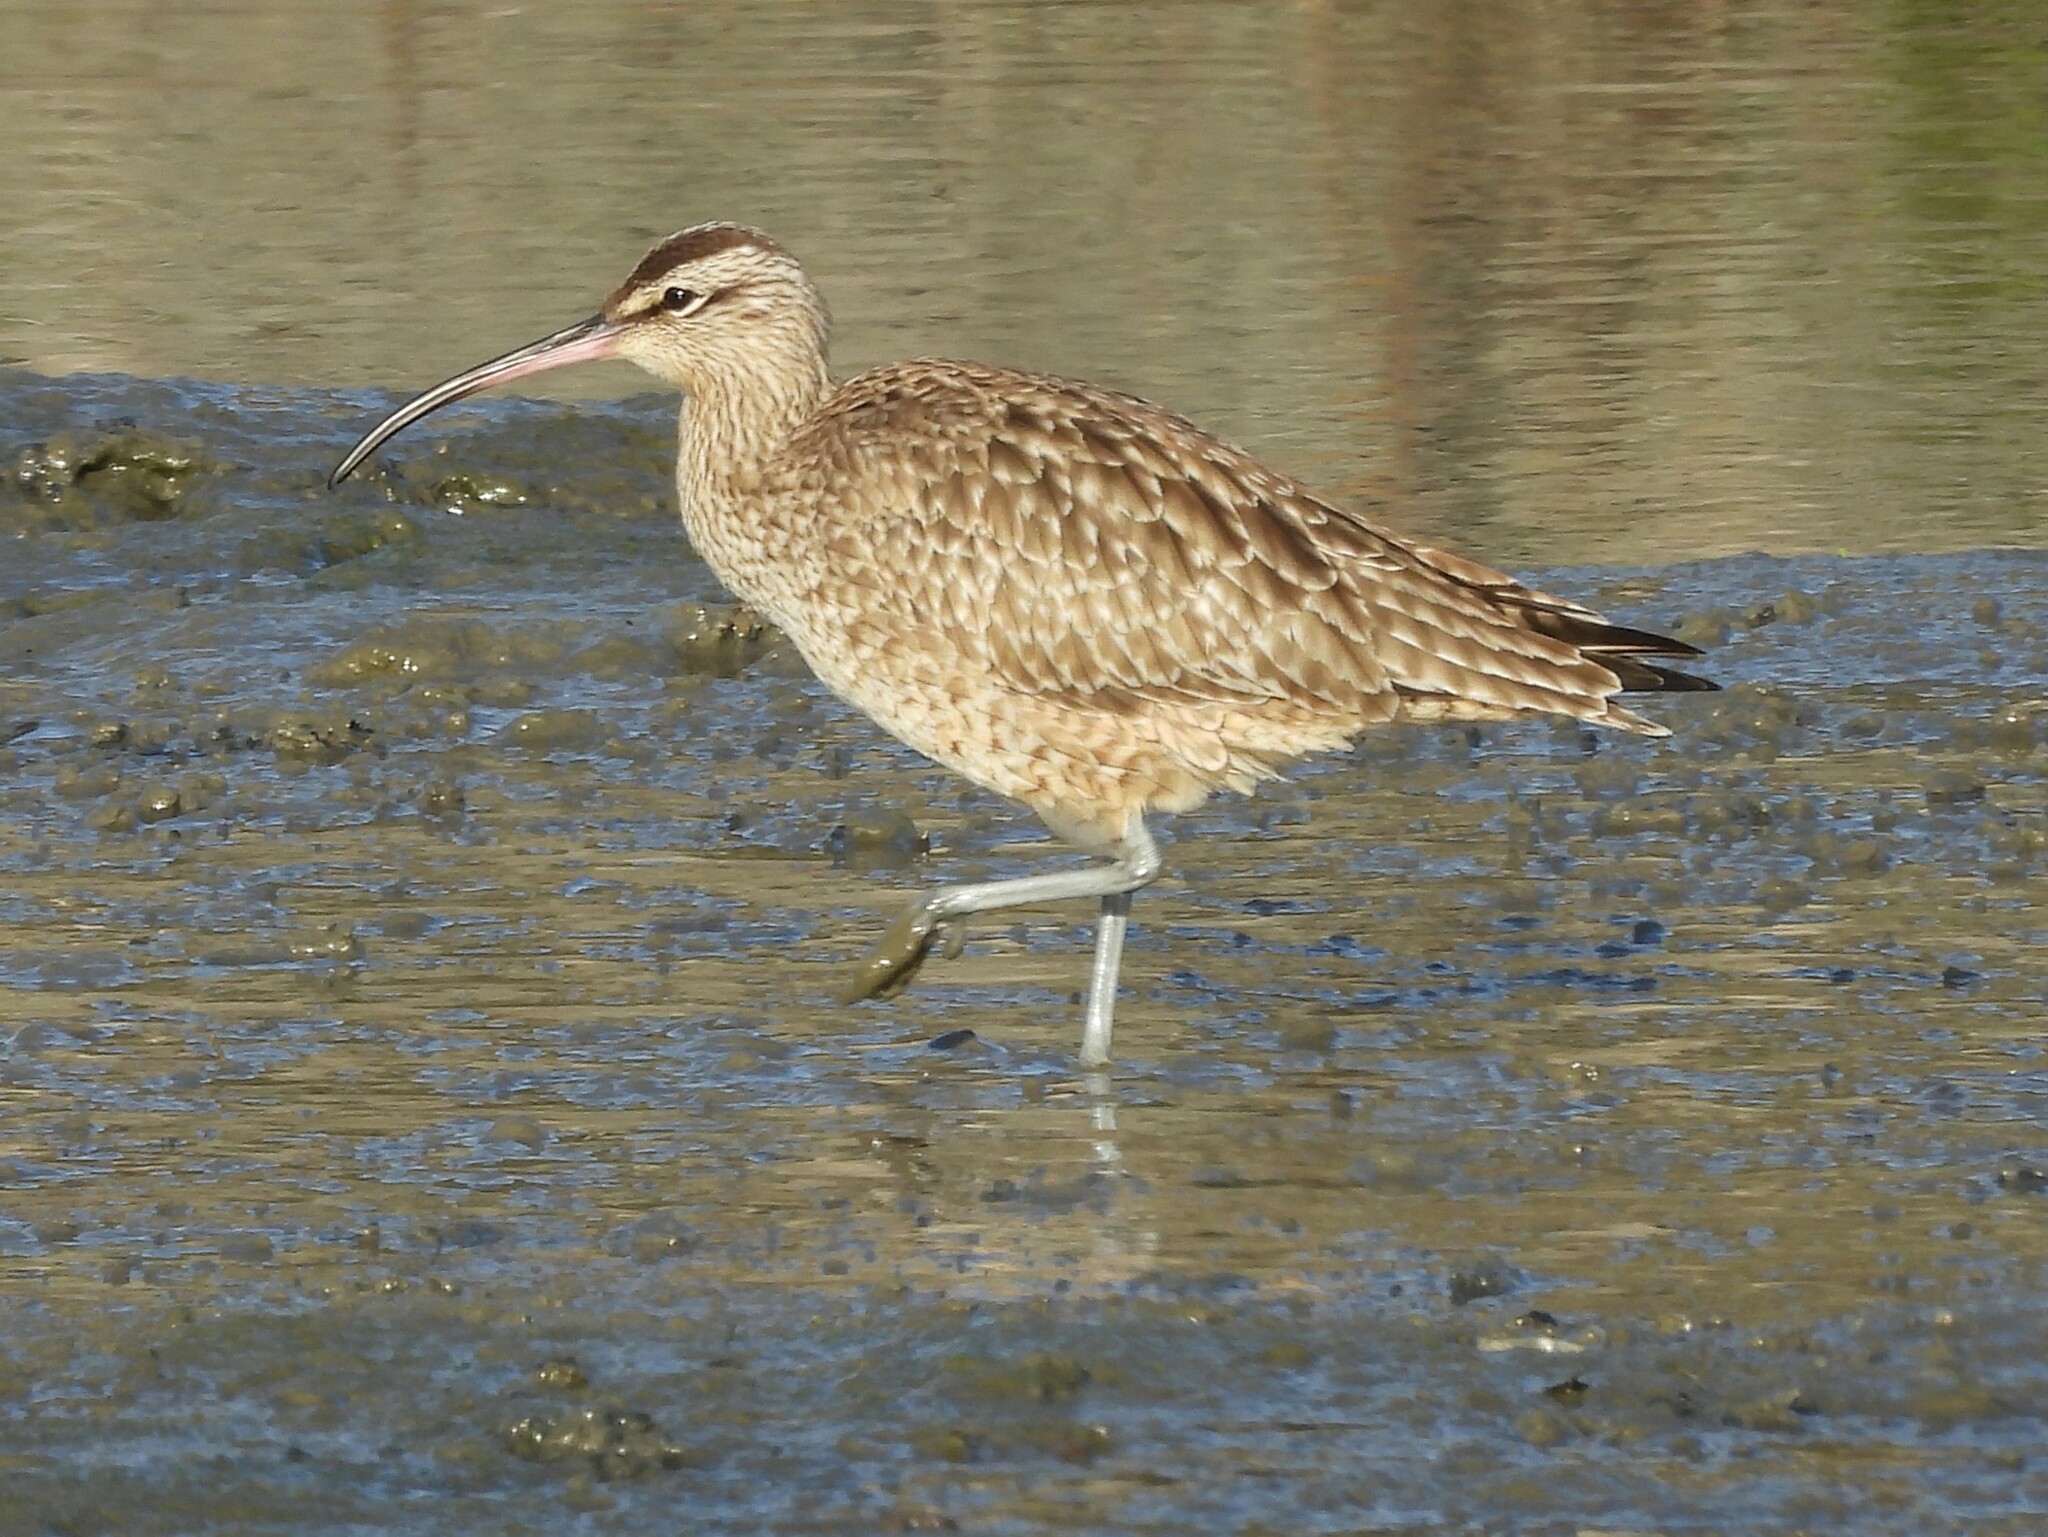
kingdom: Animalia
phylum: Chordata
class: Aves
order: Charadriiformes
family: Scolopacidae
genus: Numenius
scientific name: Numenius phaeopus
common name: Whimbrel
